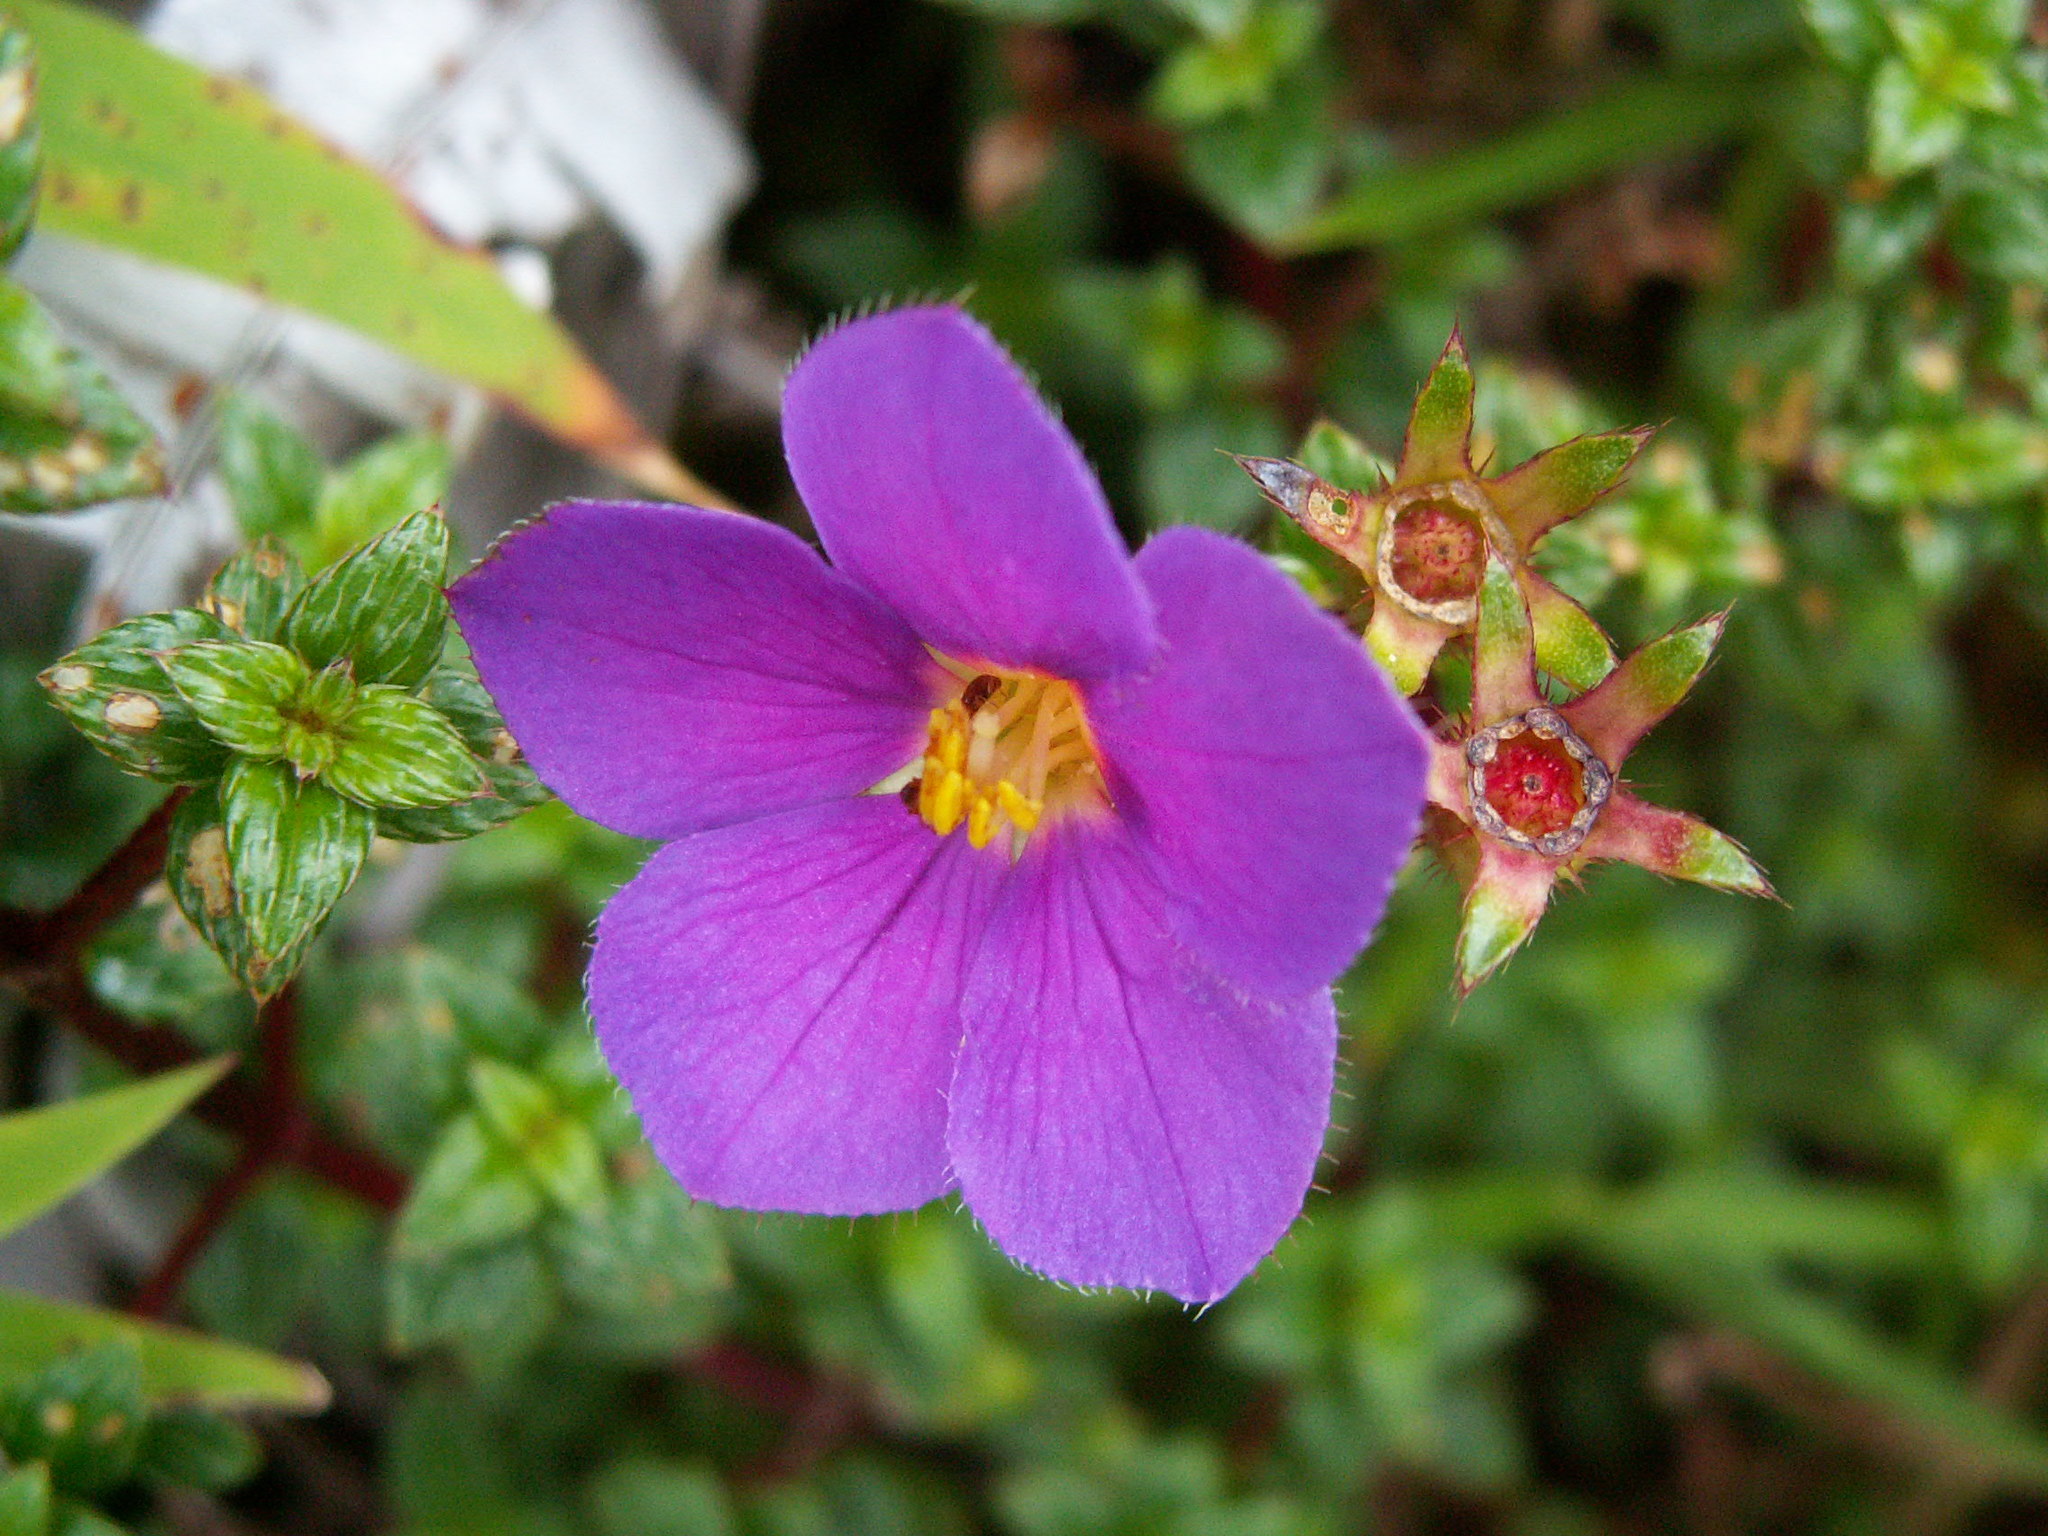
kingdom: Plantae
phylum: Tracheophyta
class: Magnoliopsida
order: Myrtales
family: Melastomataceae
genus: Chaetogastra
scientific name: Chaetogastra ornata
